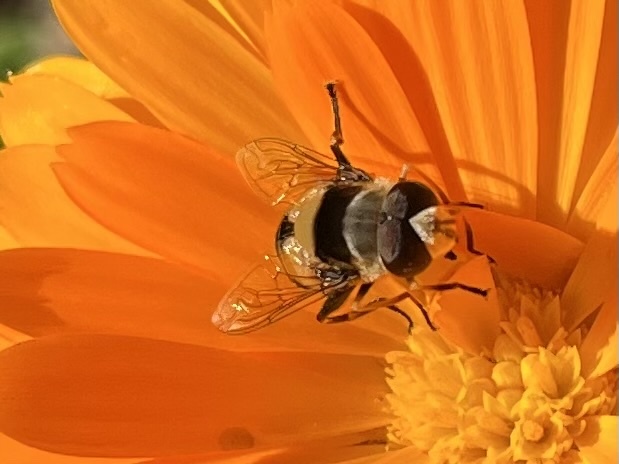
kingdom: Animalia
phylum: Arthropoda
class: Insecta
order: Diptera
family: Syrphidae
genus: Palpada
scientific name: Palpada pusilla
